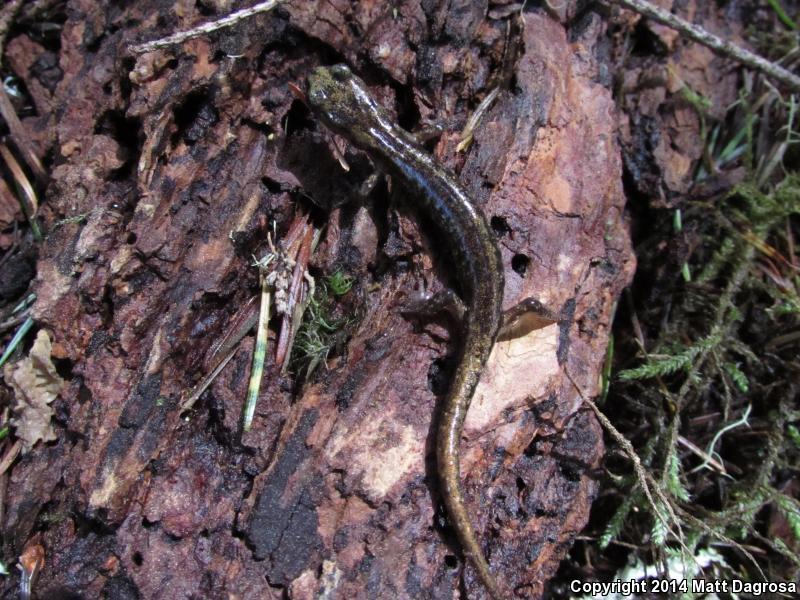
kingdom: Animalia
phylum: Chordata
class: Amphibia
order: Caudata
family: Plethodontidae
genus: Aneides
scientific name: Aneides ferreus
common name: Clouded salamander
